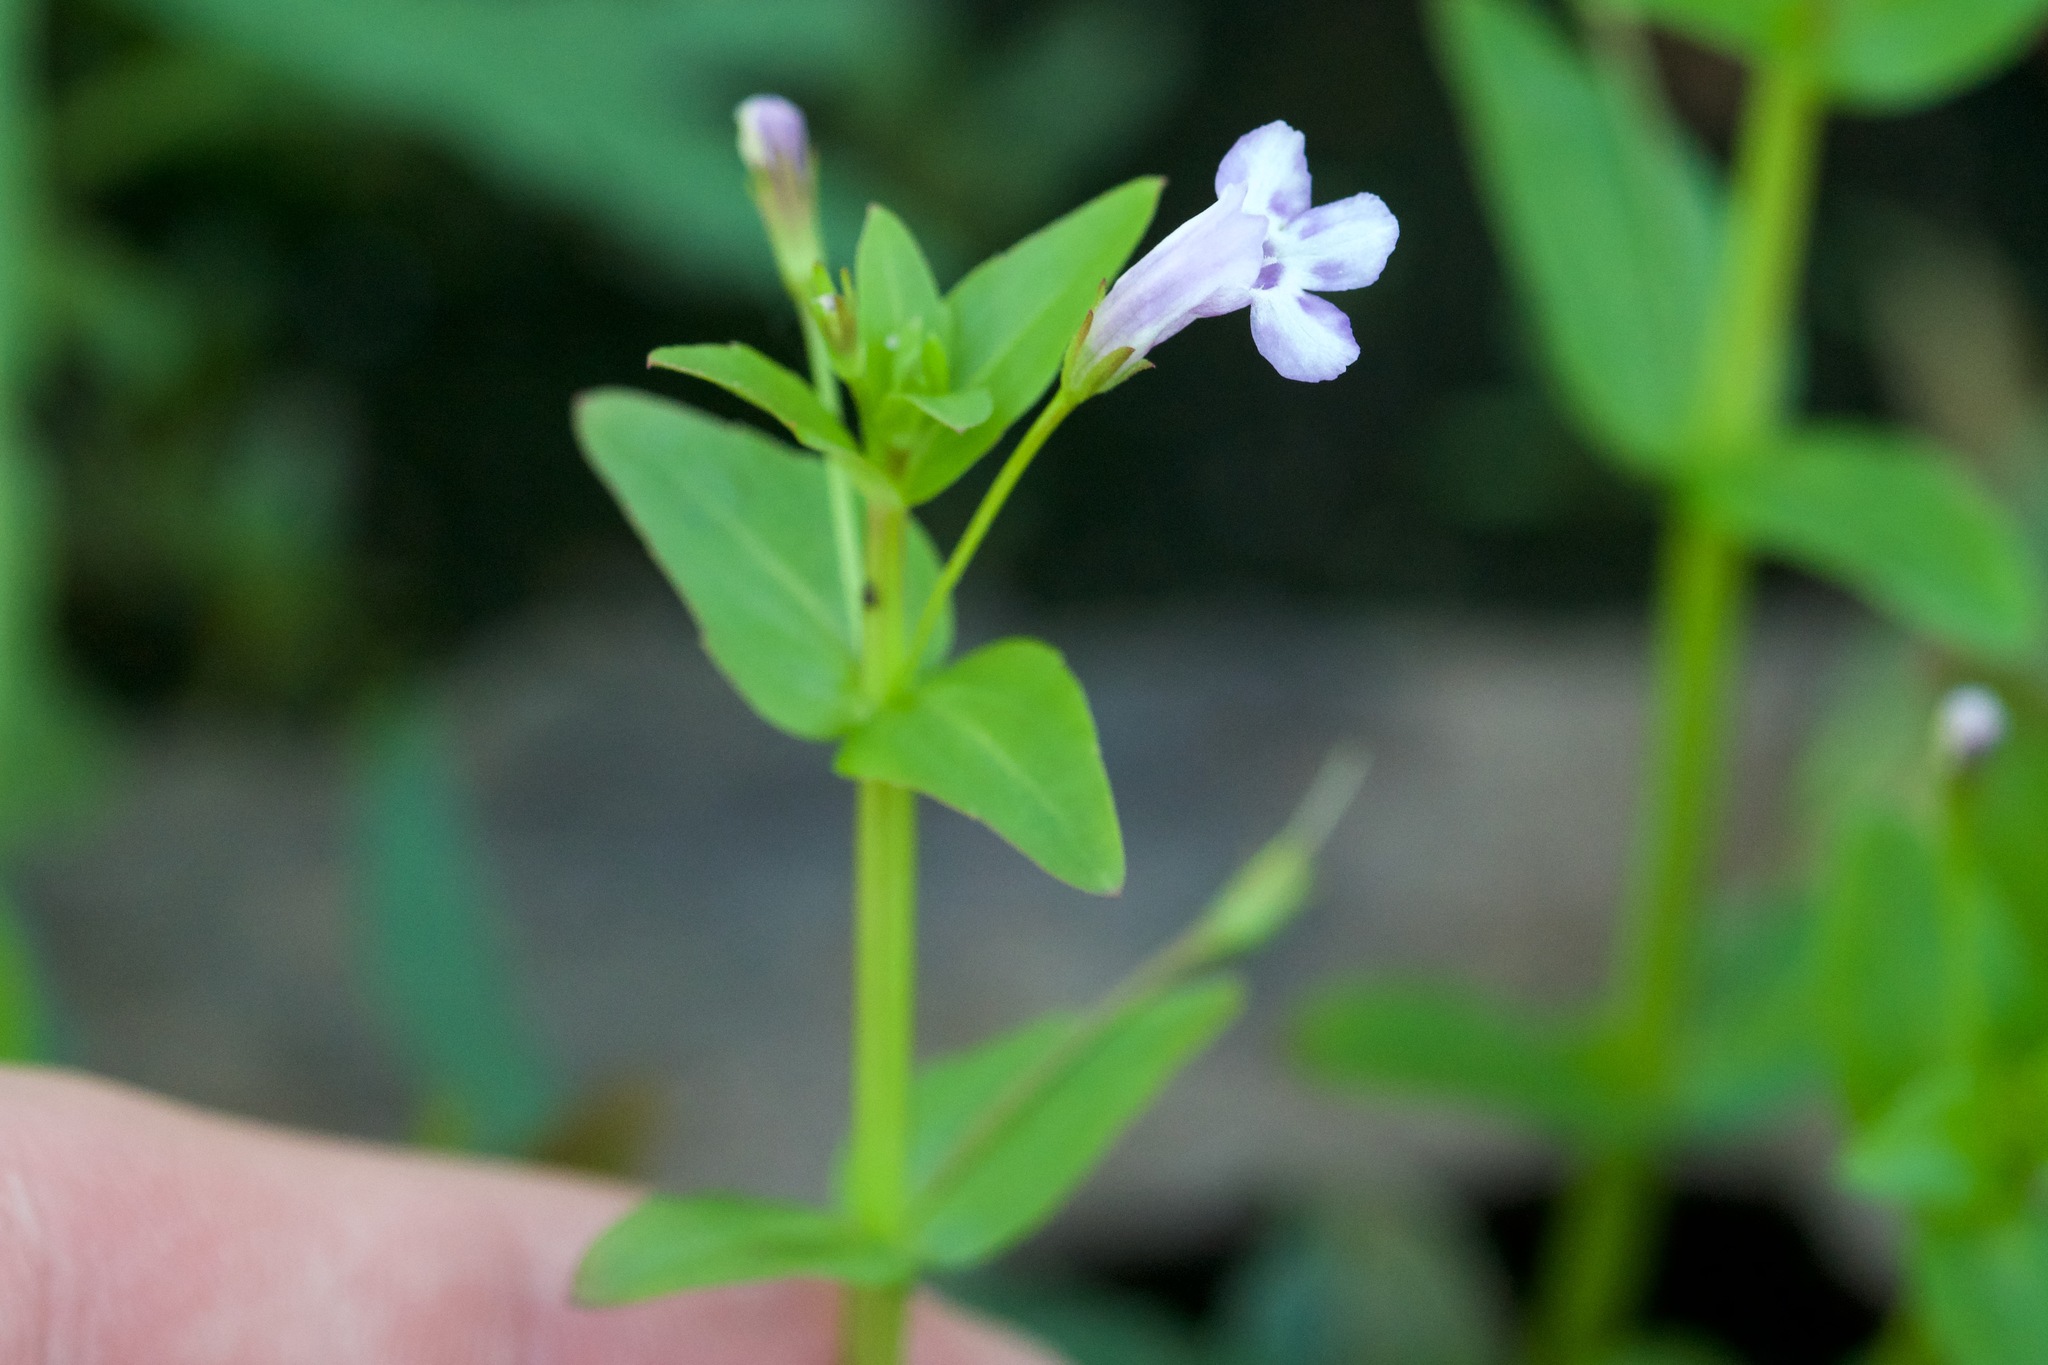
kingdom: Plantae
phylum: Tracheophyta
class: Magnoliopsida
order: Lamiales
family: Linderniaceae
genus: Lindernia
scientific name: Lindernia dubia
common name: Annual false pimpernel
